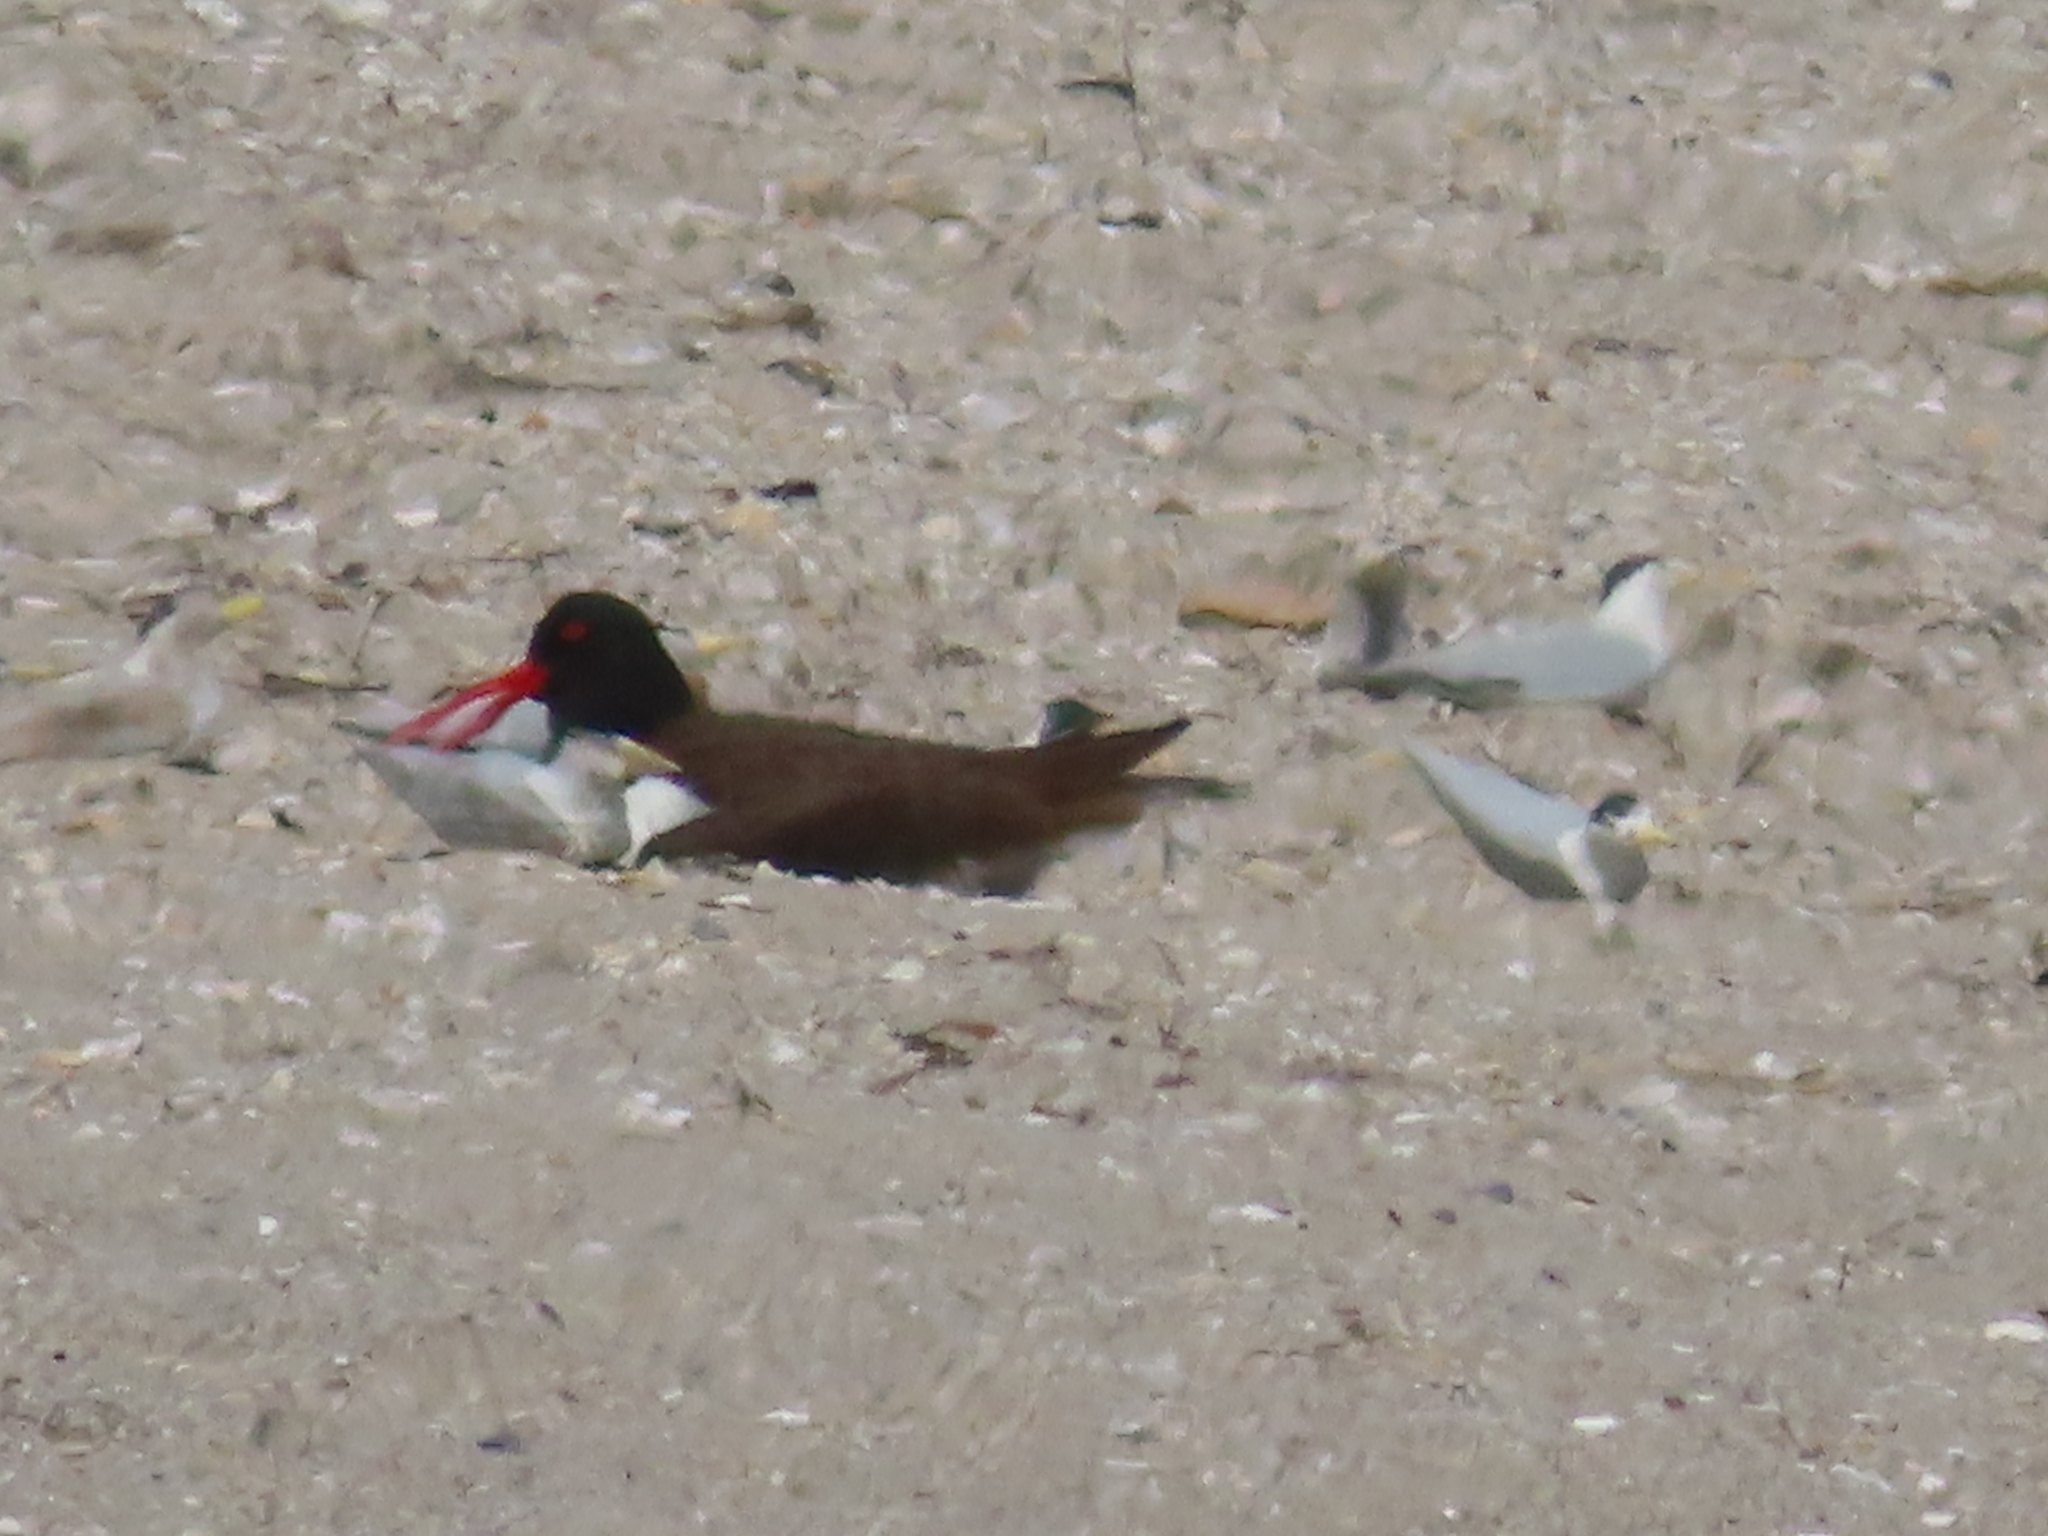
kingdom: Animalia
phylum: Chordata
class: Aves
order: Charadriiformes
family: Haematopodidae
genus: Haematopus
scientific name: Haematopus palliatus
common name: American oystercatcher
